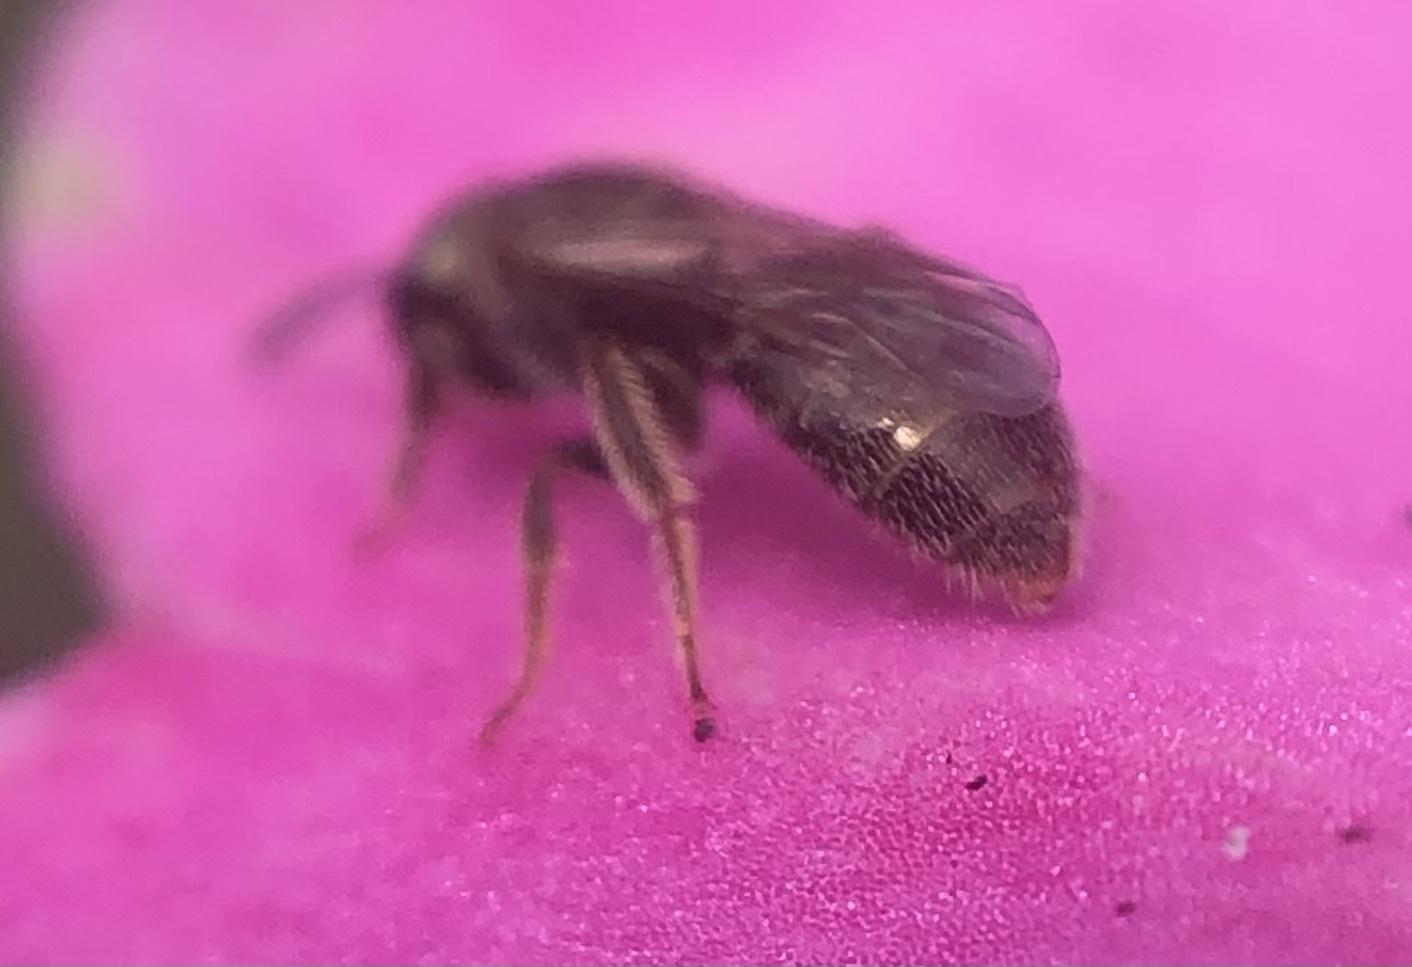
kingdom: Animalia
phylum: Arthropoda
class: Insecta
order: Hymenoptera
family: Halictidae
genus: Lasioglossum
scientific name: Lasioglossum imitatum
